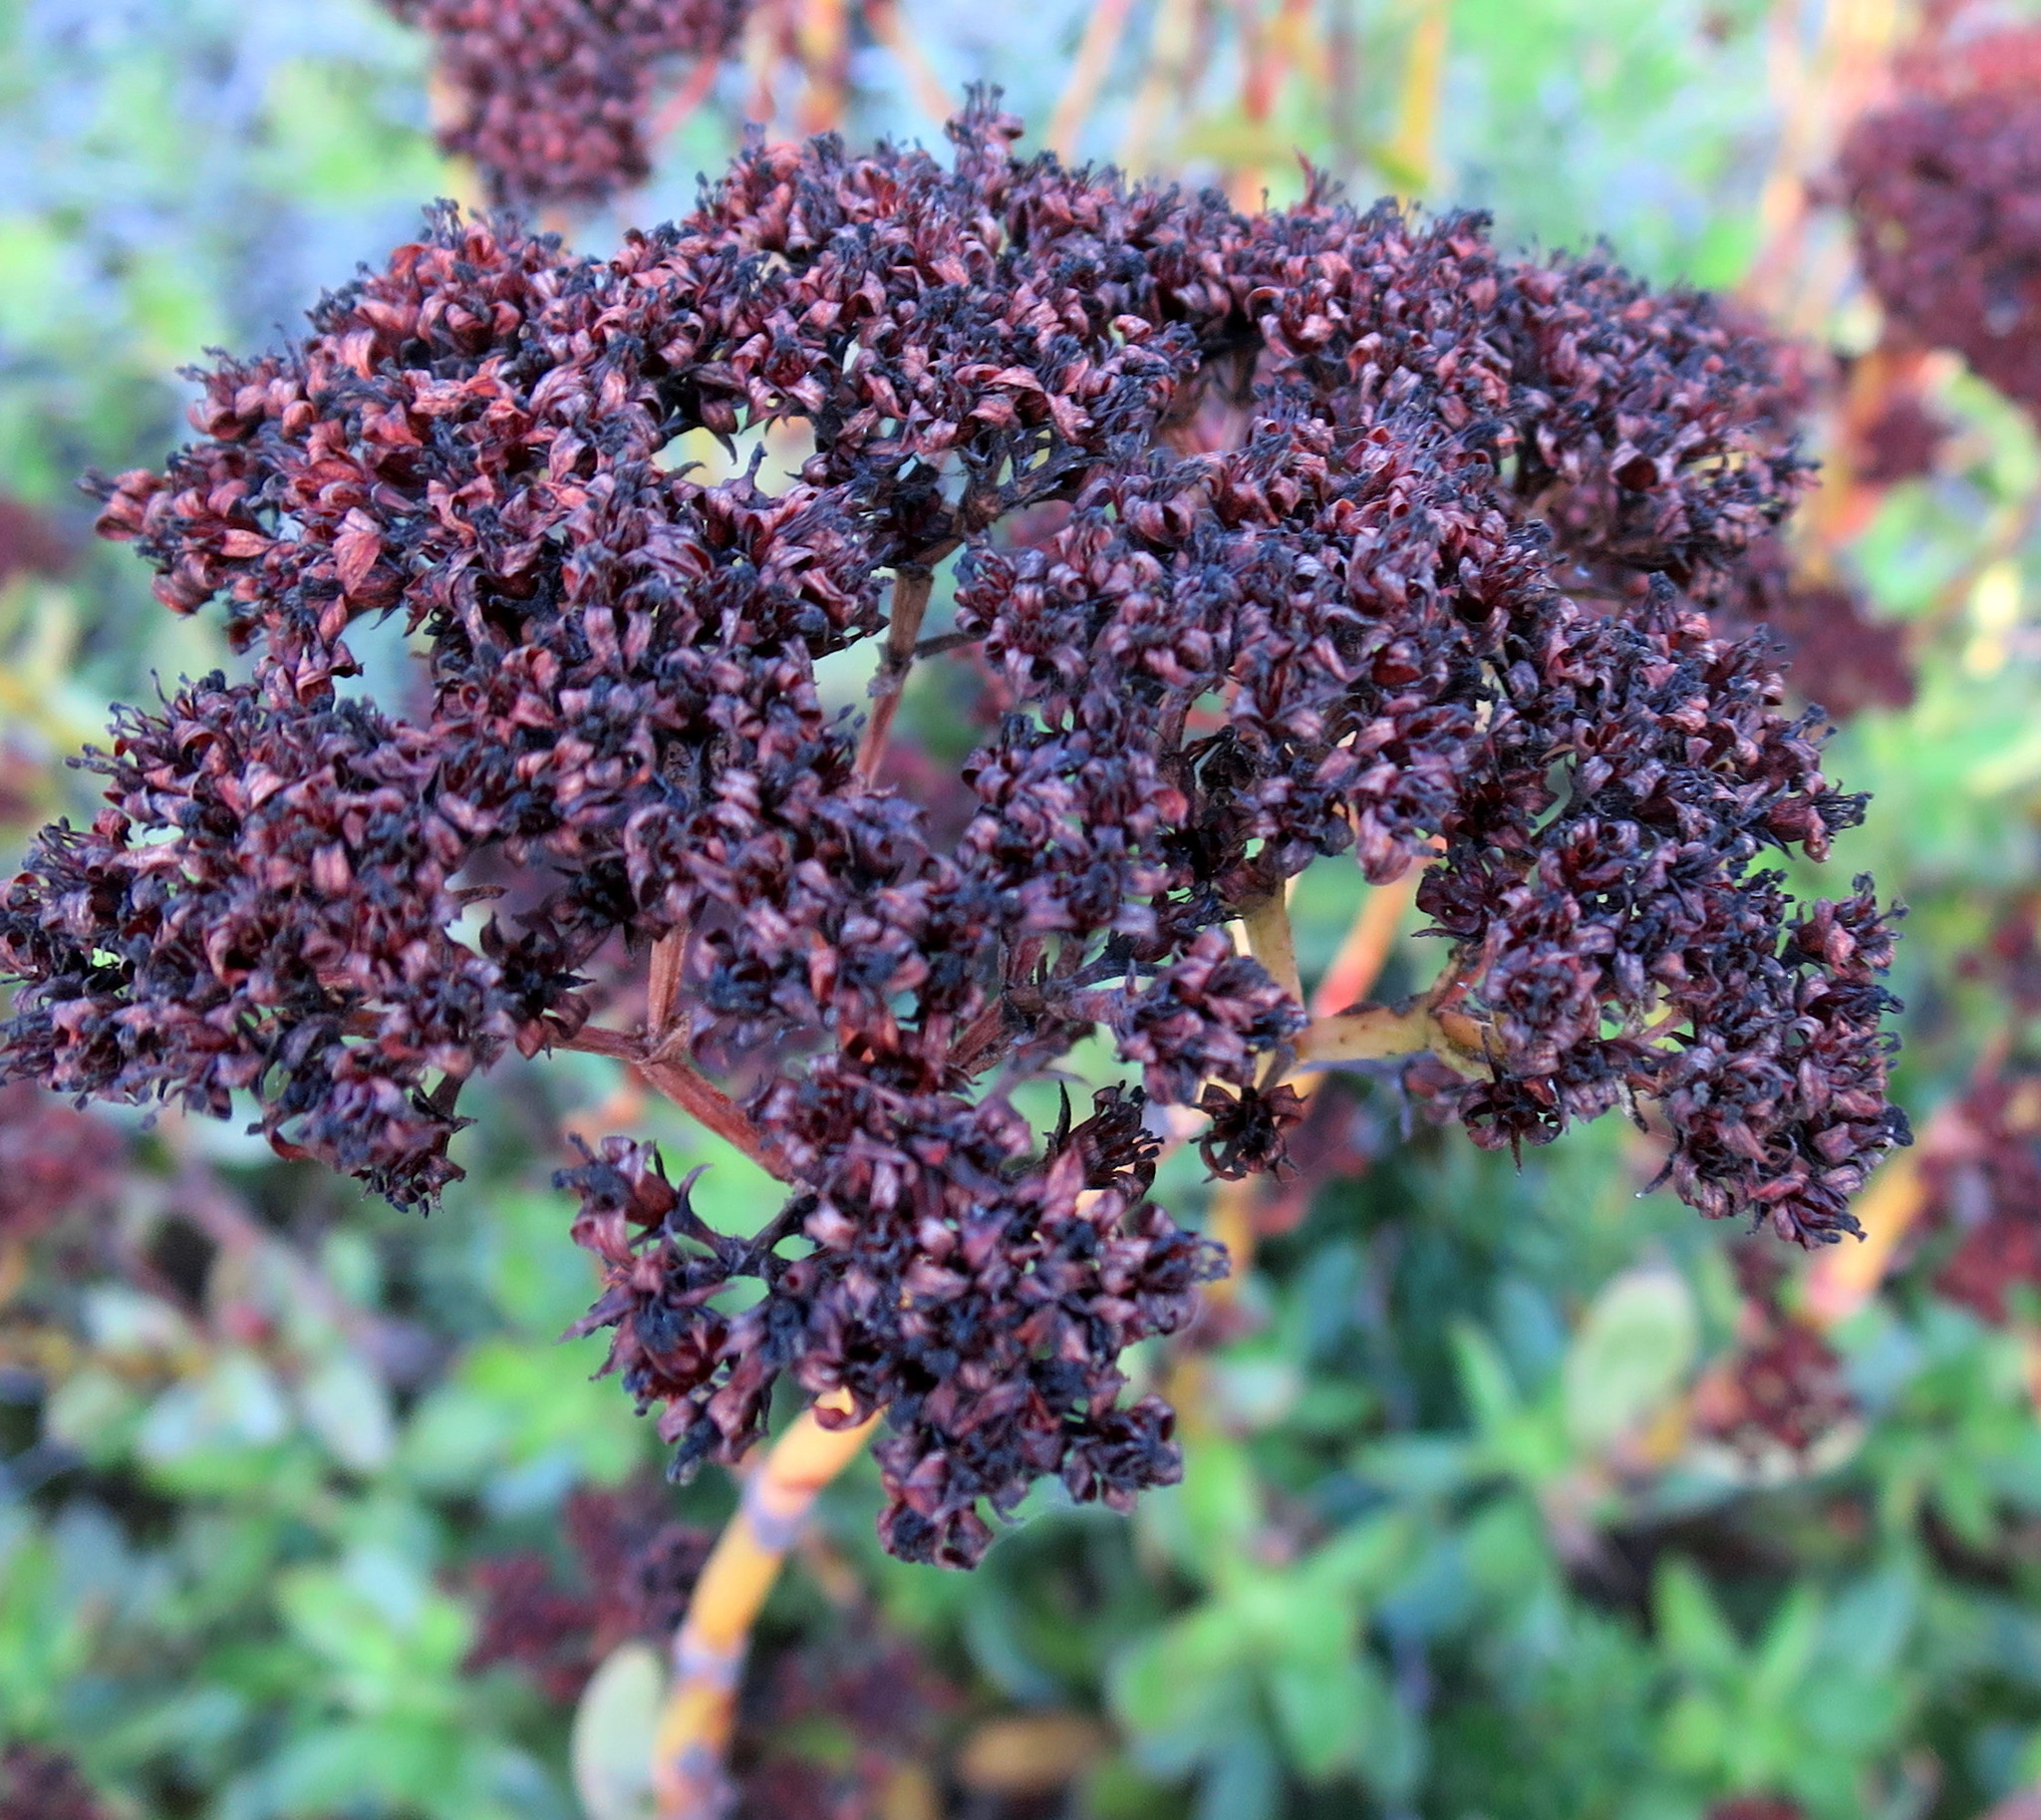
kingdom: Plantae
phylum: Tracheophyta
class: Magnoliopsida
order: Saxifragales
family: Crassulaceae
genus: Crassula
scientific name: Crassula rubricaulis
